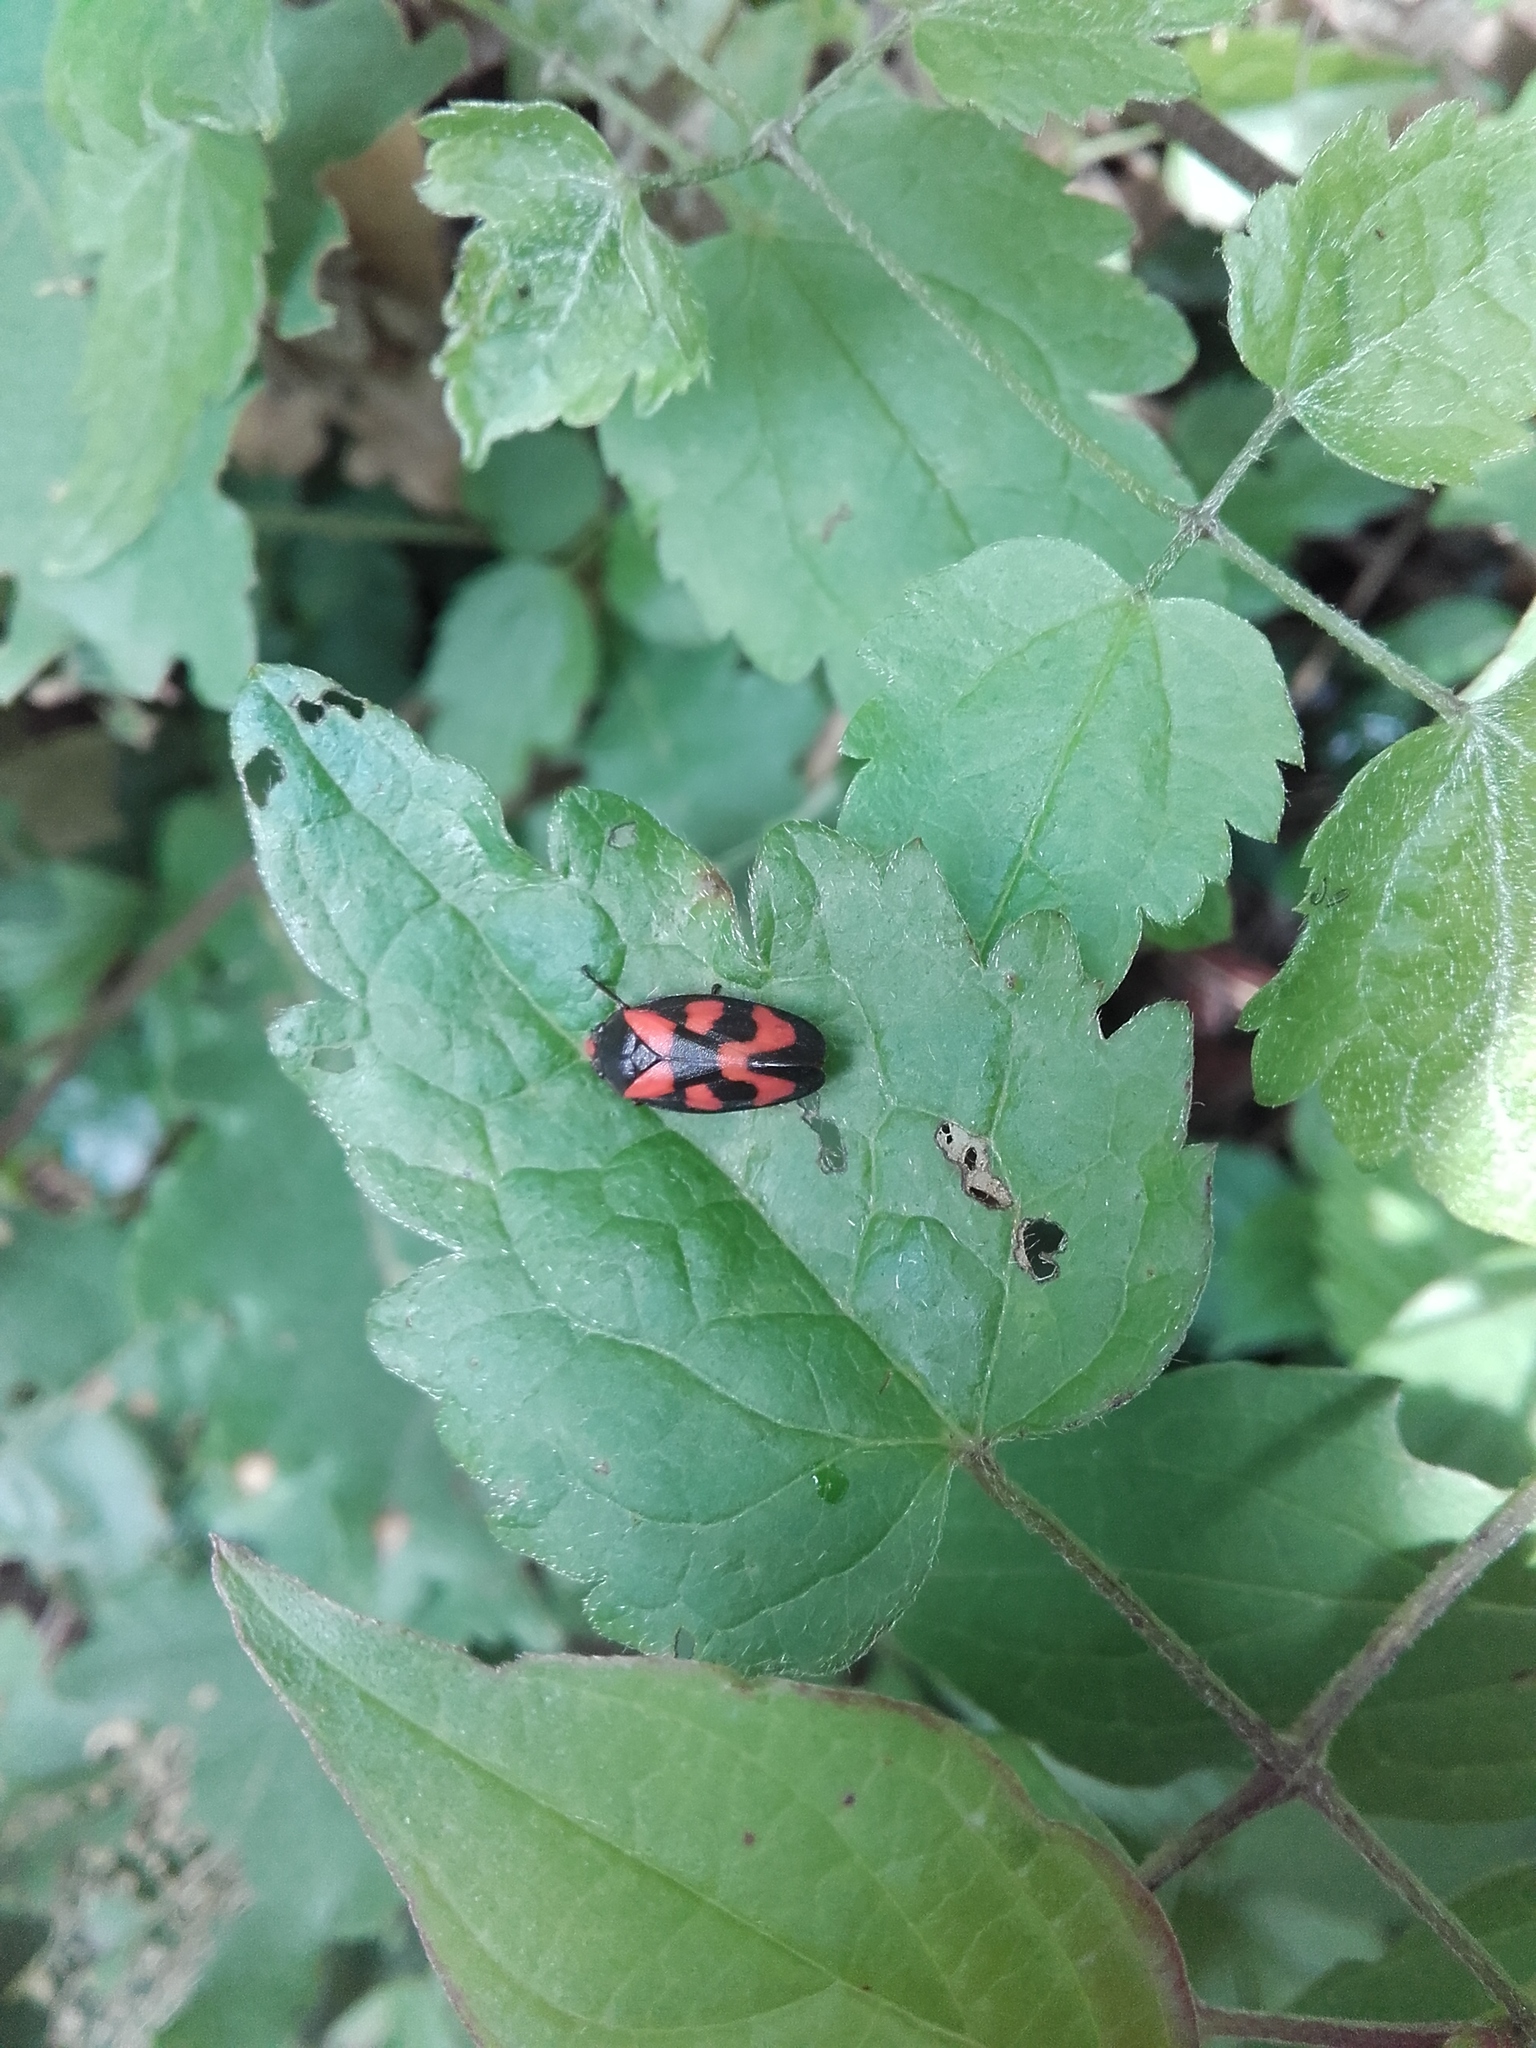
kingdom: Animalia
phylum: Arthropoda
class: Insecta
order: Hemiptera
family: Cercopidae
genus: Cercopis
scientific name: Cercopis vulnerata
